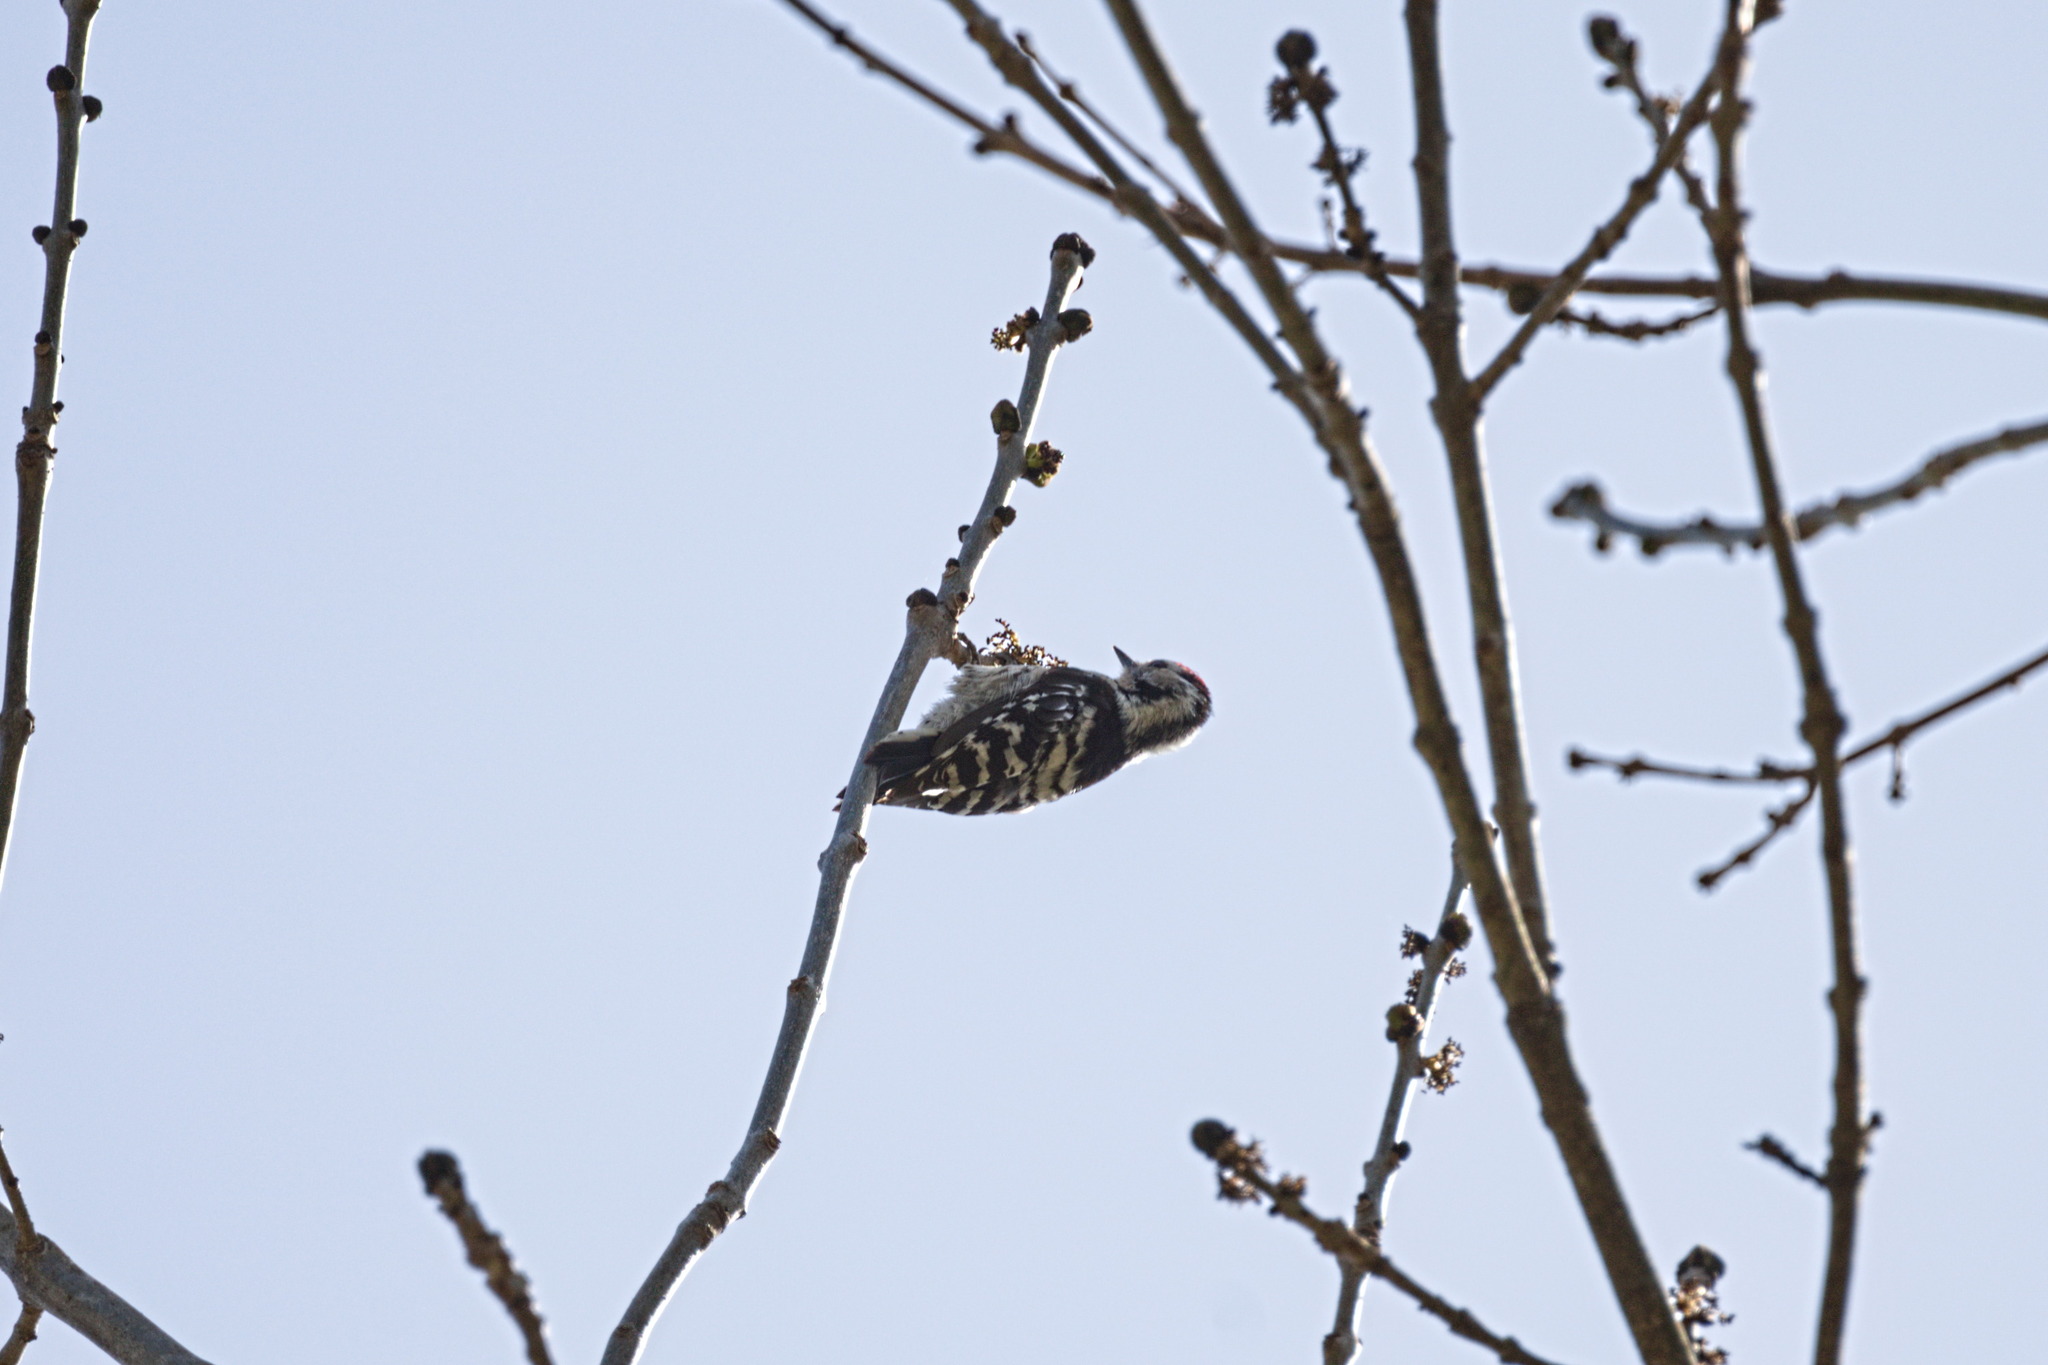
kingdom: Animalia
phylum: Chordata
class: Aves
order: Piciformes
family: Picidae
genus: Dryobates
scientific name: Dryobates minor
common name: Lesser spotted woodpecker
